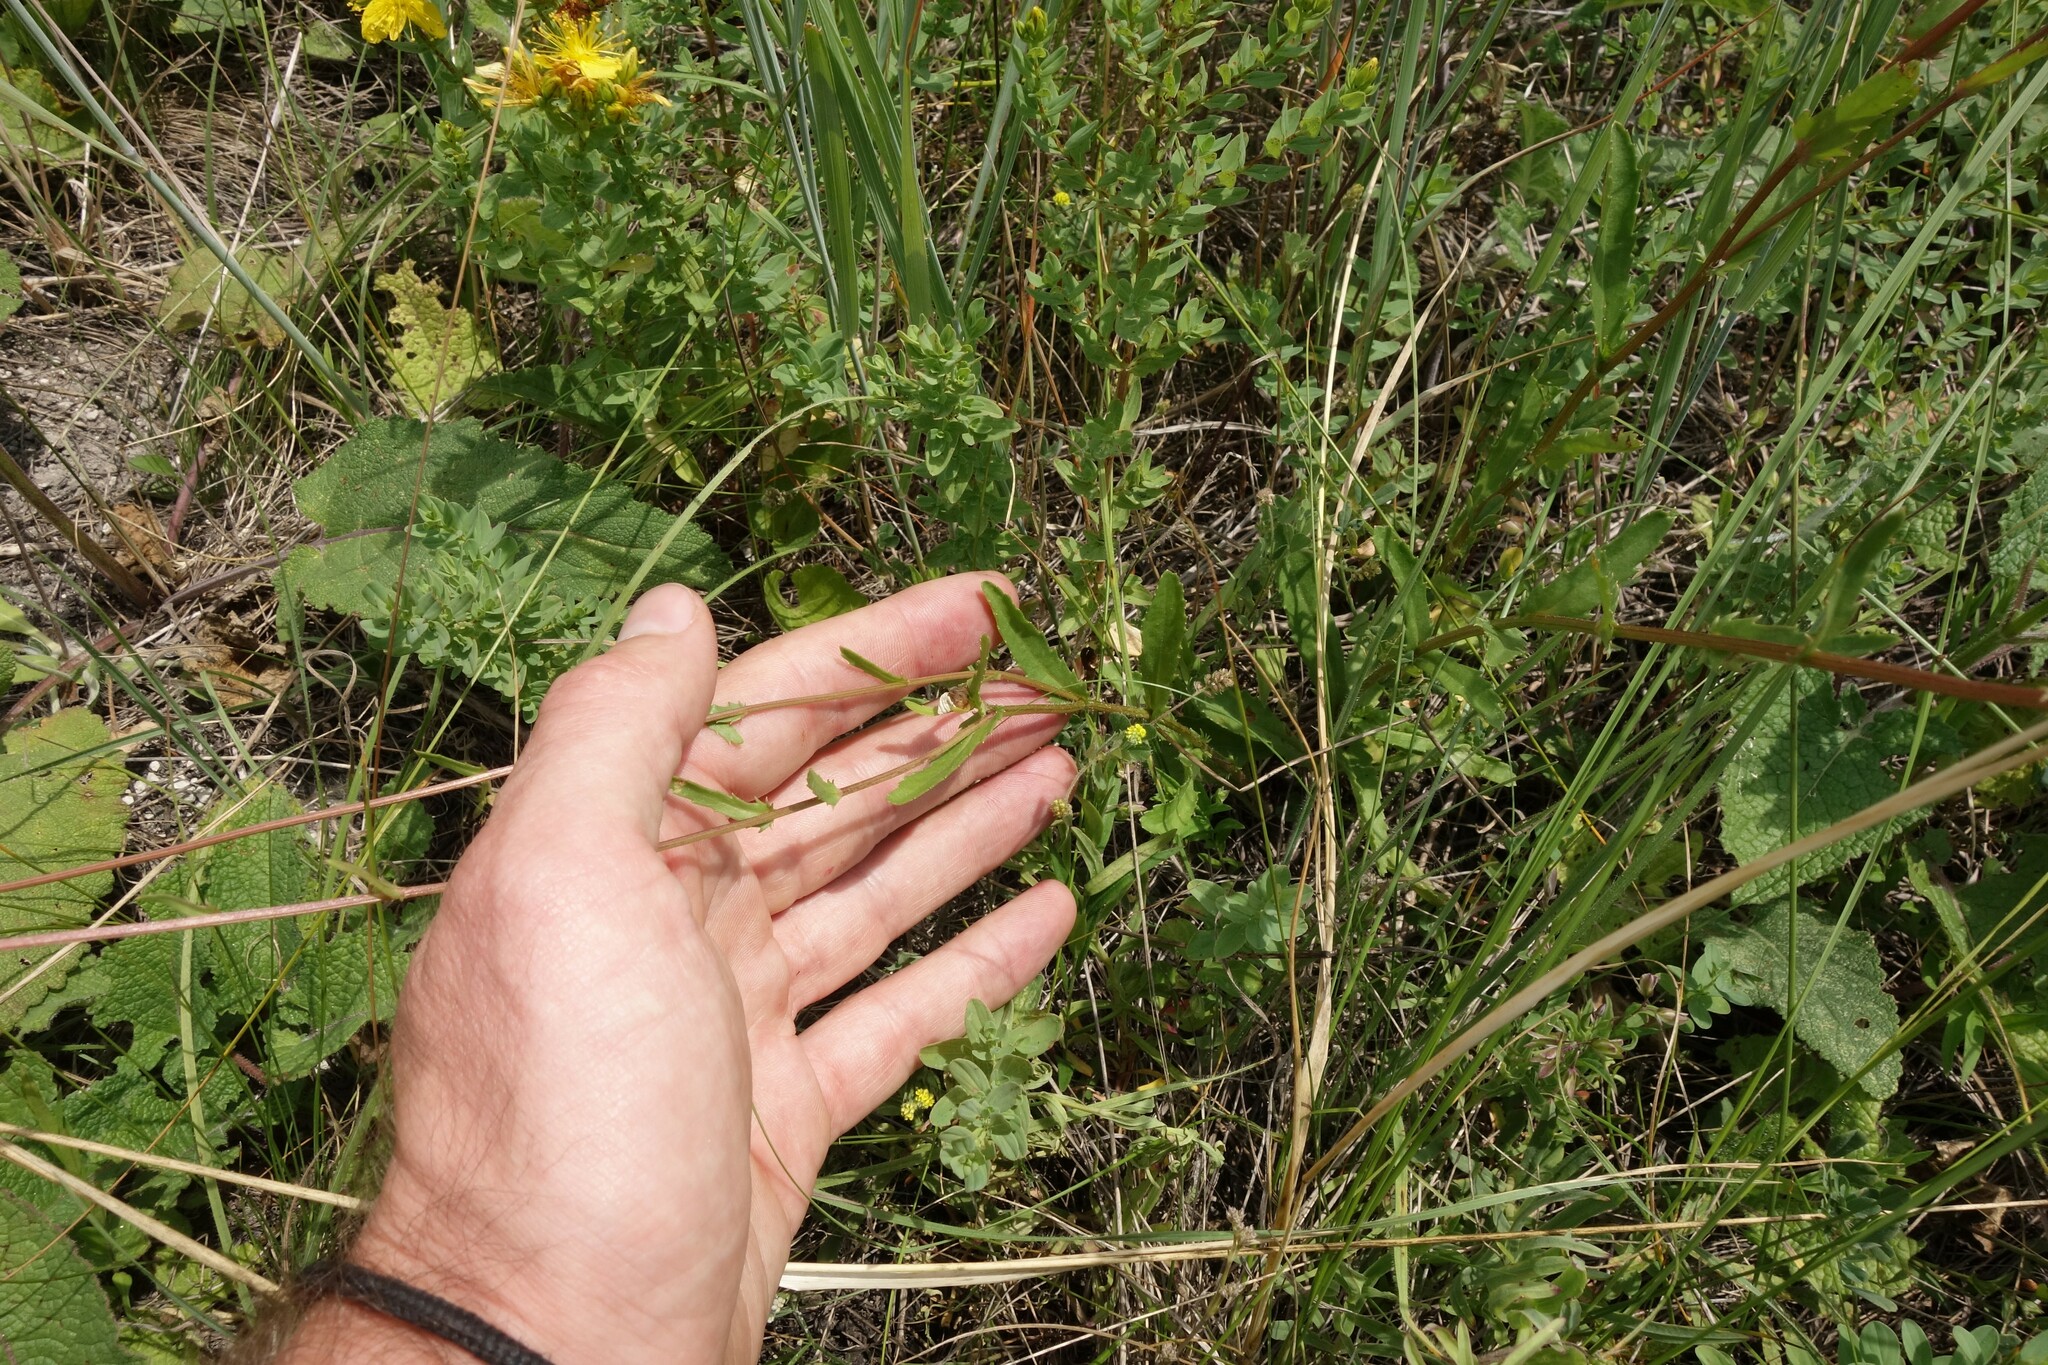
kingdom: Plantae
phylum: Tracheophyta
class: Magnoliopsida
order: Asterales
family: Asteraceae
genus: Leucanthemum
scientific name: Leucanthemum vulgare
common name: Oxeye daisy
